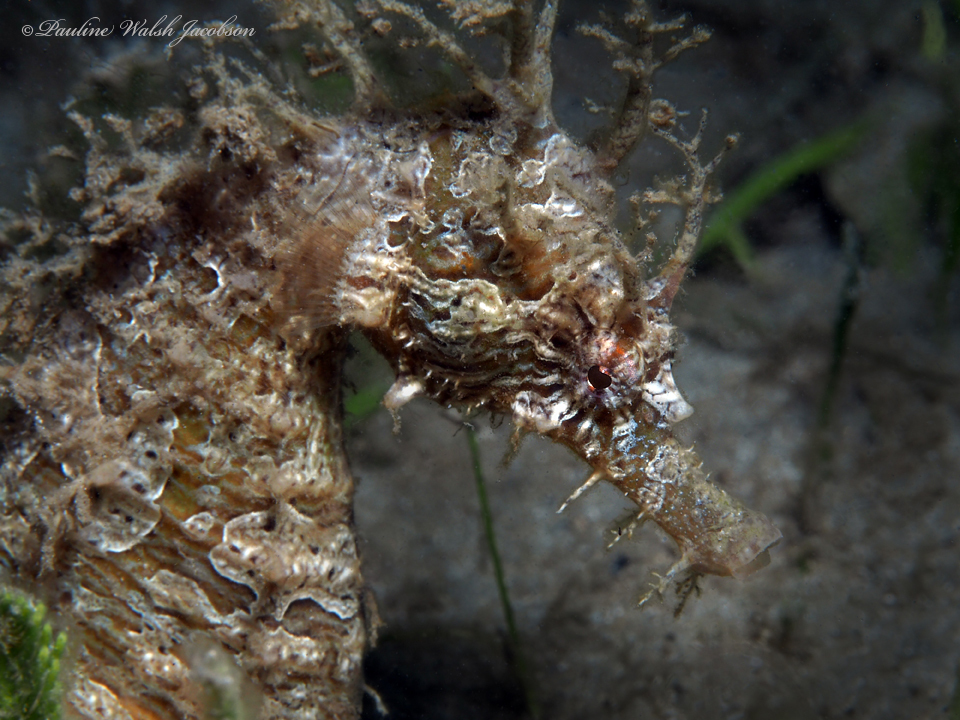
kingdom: Animalia
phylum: Chordata
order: Syngnathiformes
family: Syngnathidae
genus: Hippocampus
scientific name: Hippocampus erectus
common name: Lined seahorse
